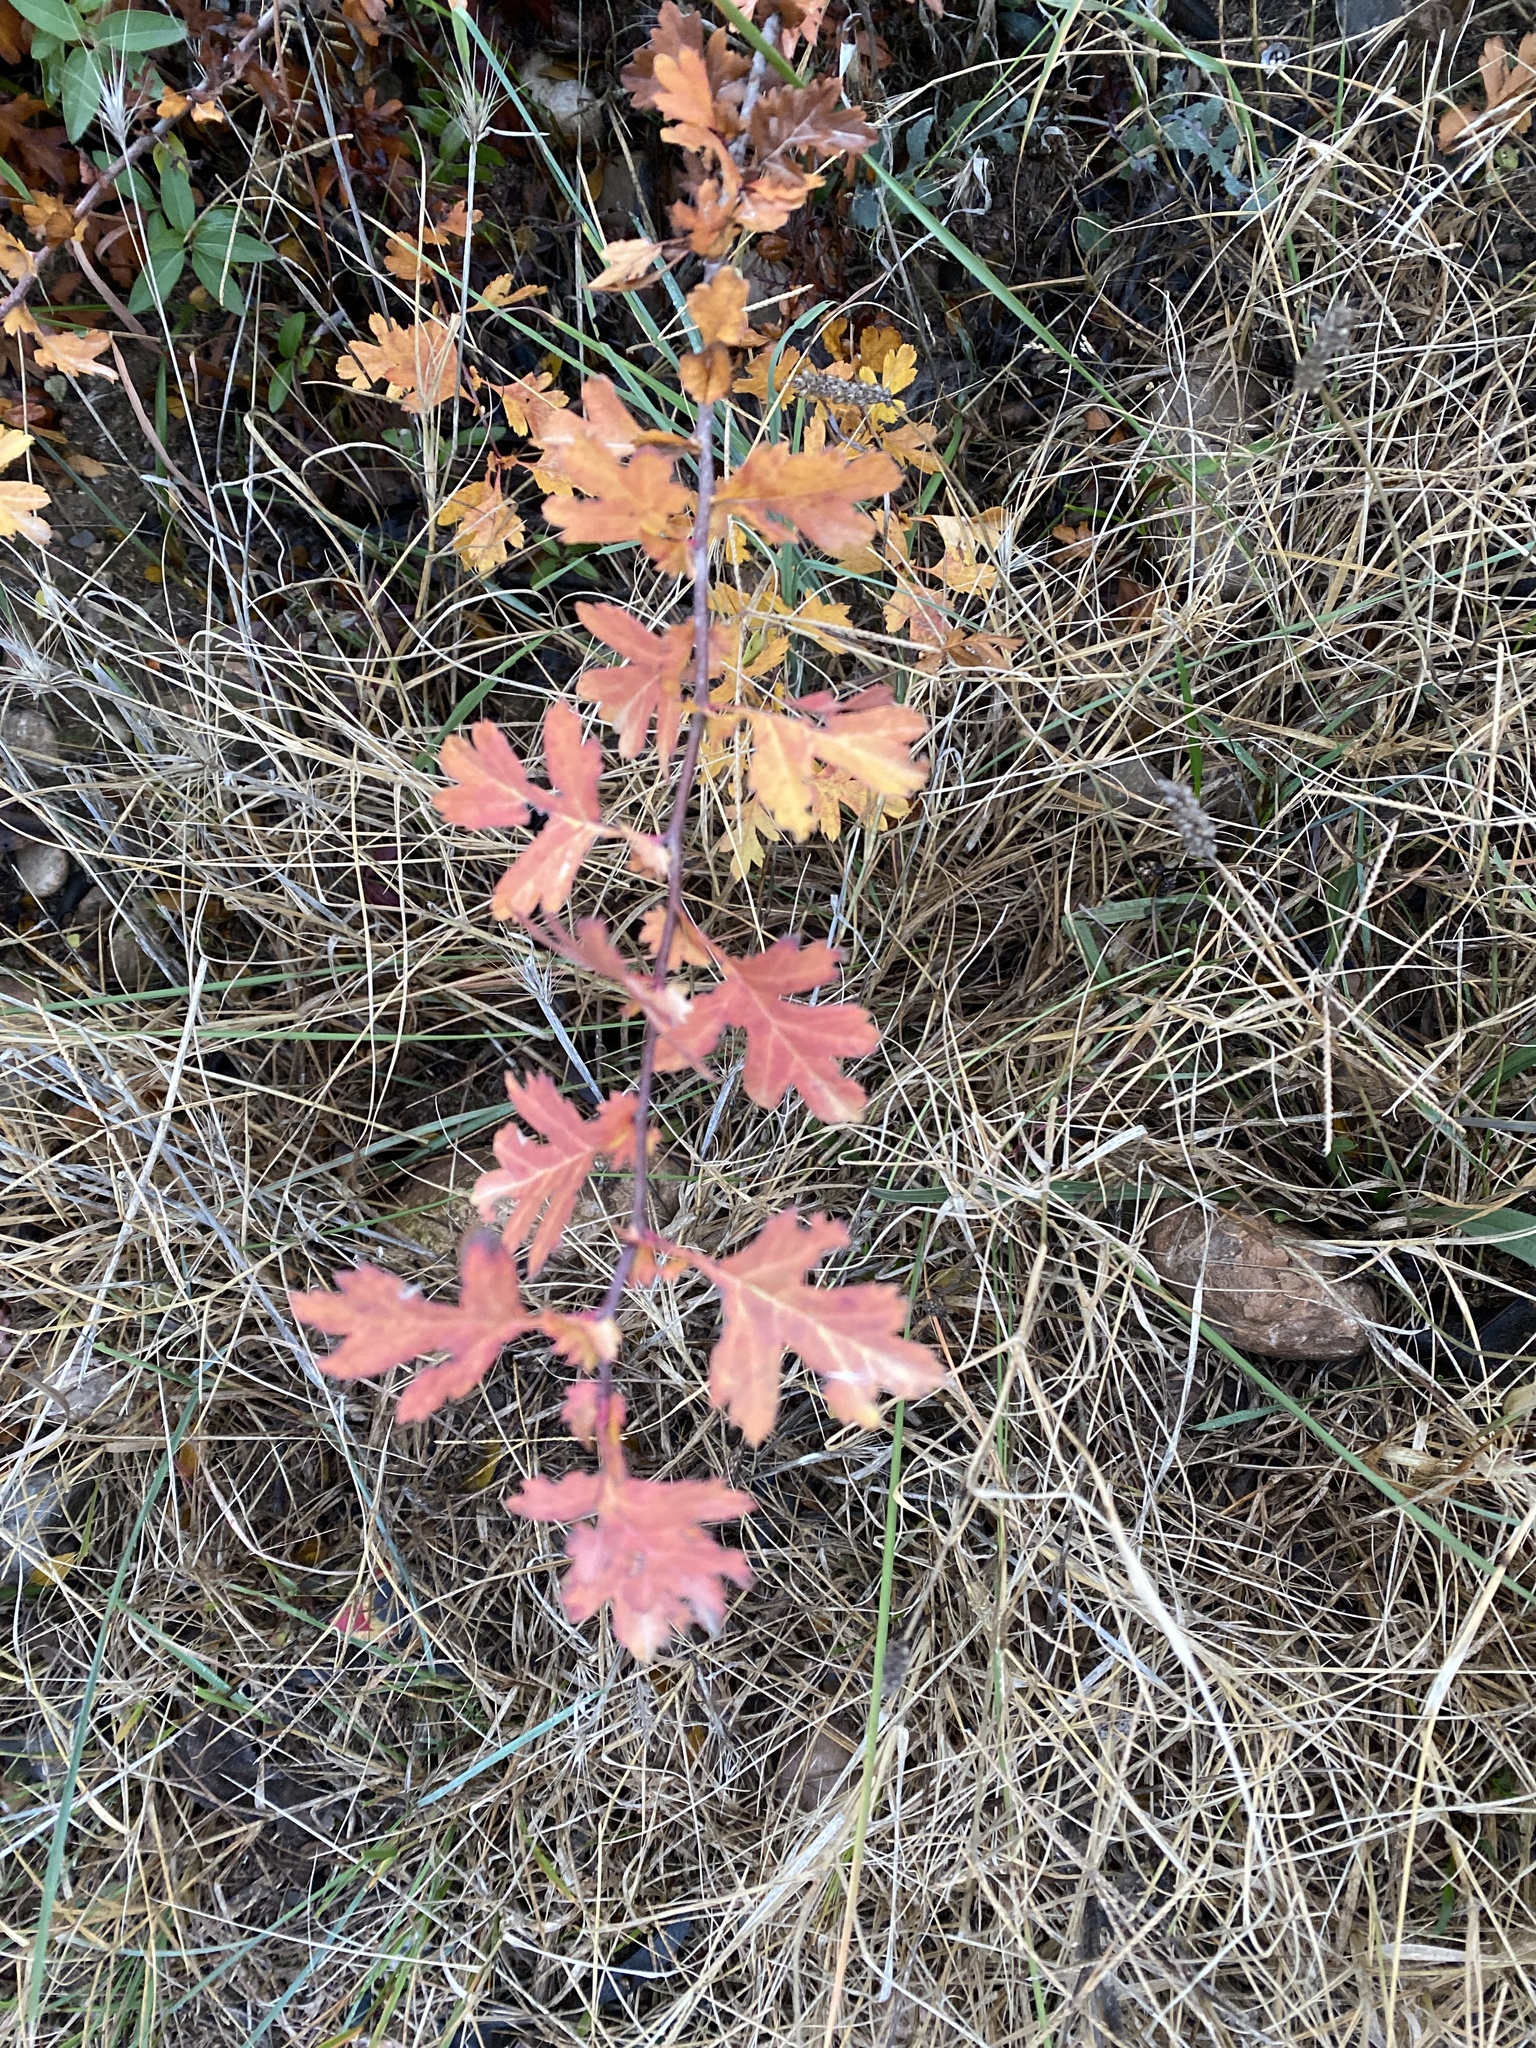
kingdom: Plantae
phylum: Tracheophyta
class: Magnoliopsida
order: Rosales
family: Rosaceae
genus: Crataegus
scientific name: Crataegus monogyna
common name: Hawthorn
